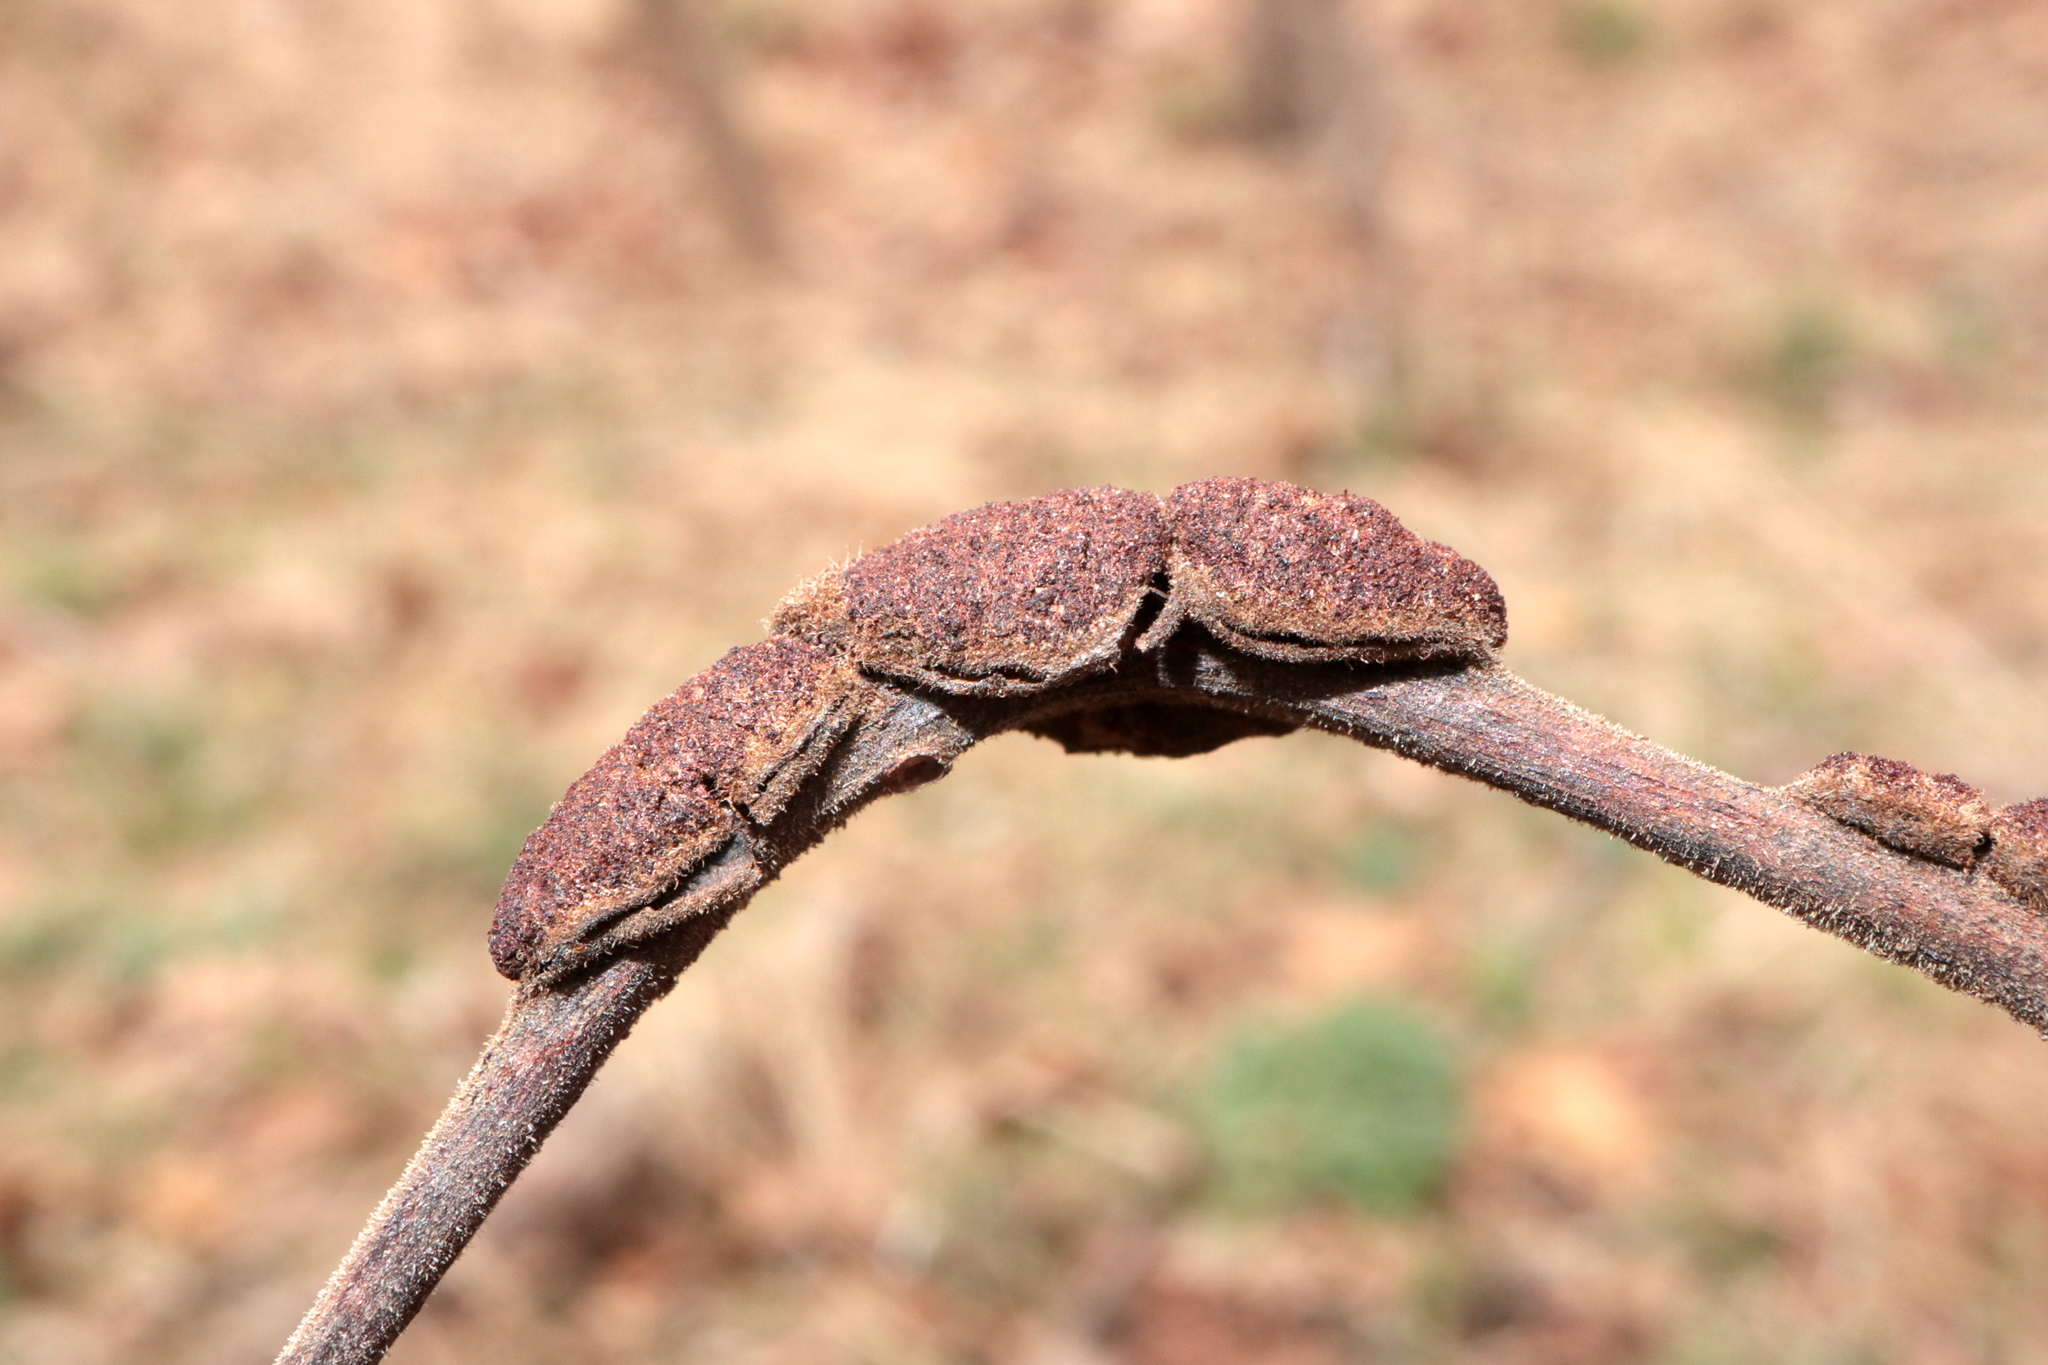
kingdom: Animalia
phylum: Arthropoda
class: Arachnida
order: Trombidiformes
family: Eriophyidae
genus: Aceria
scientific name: Aceria
